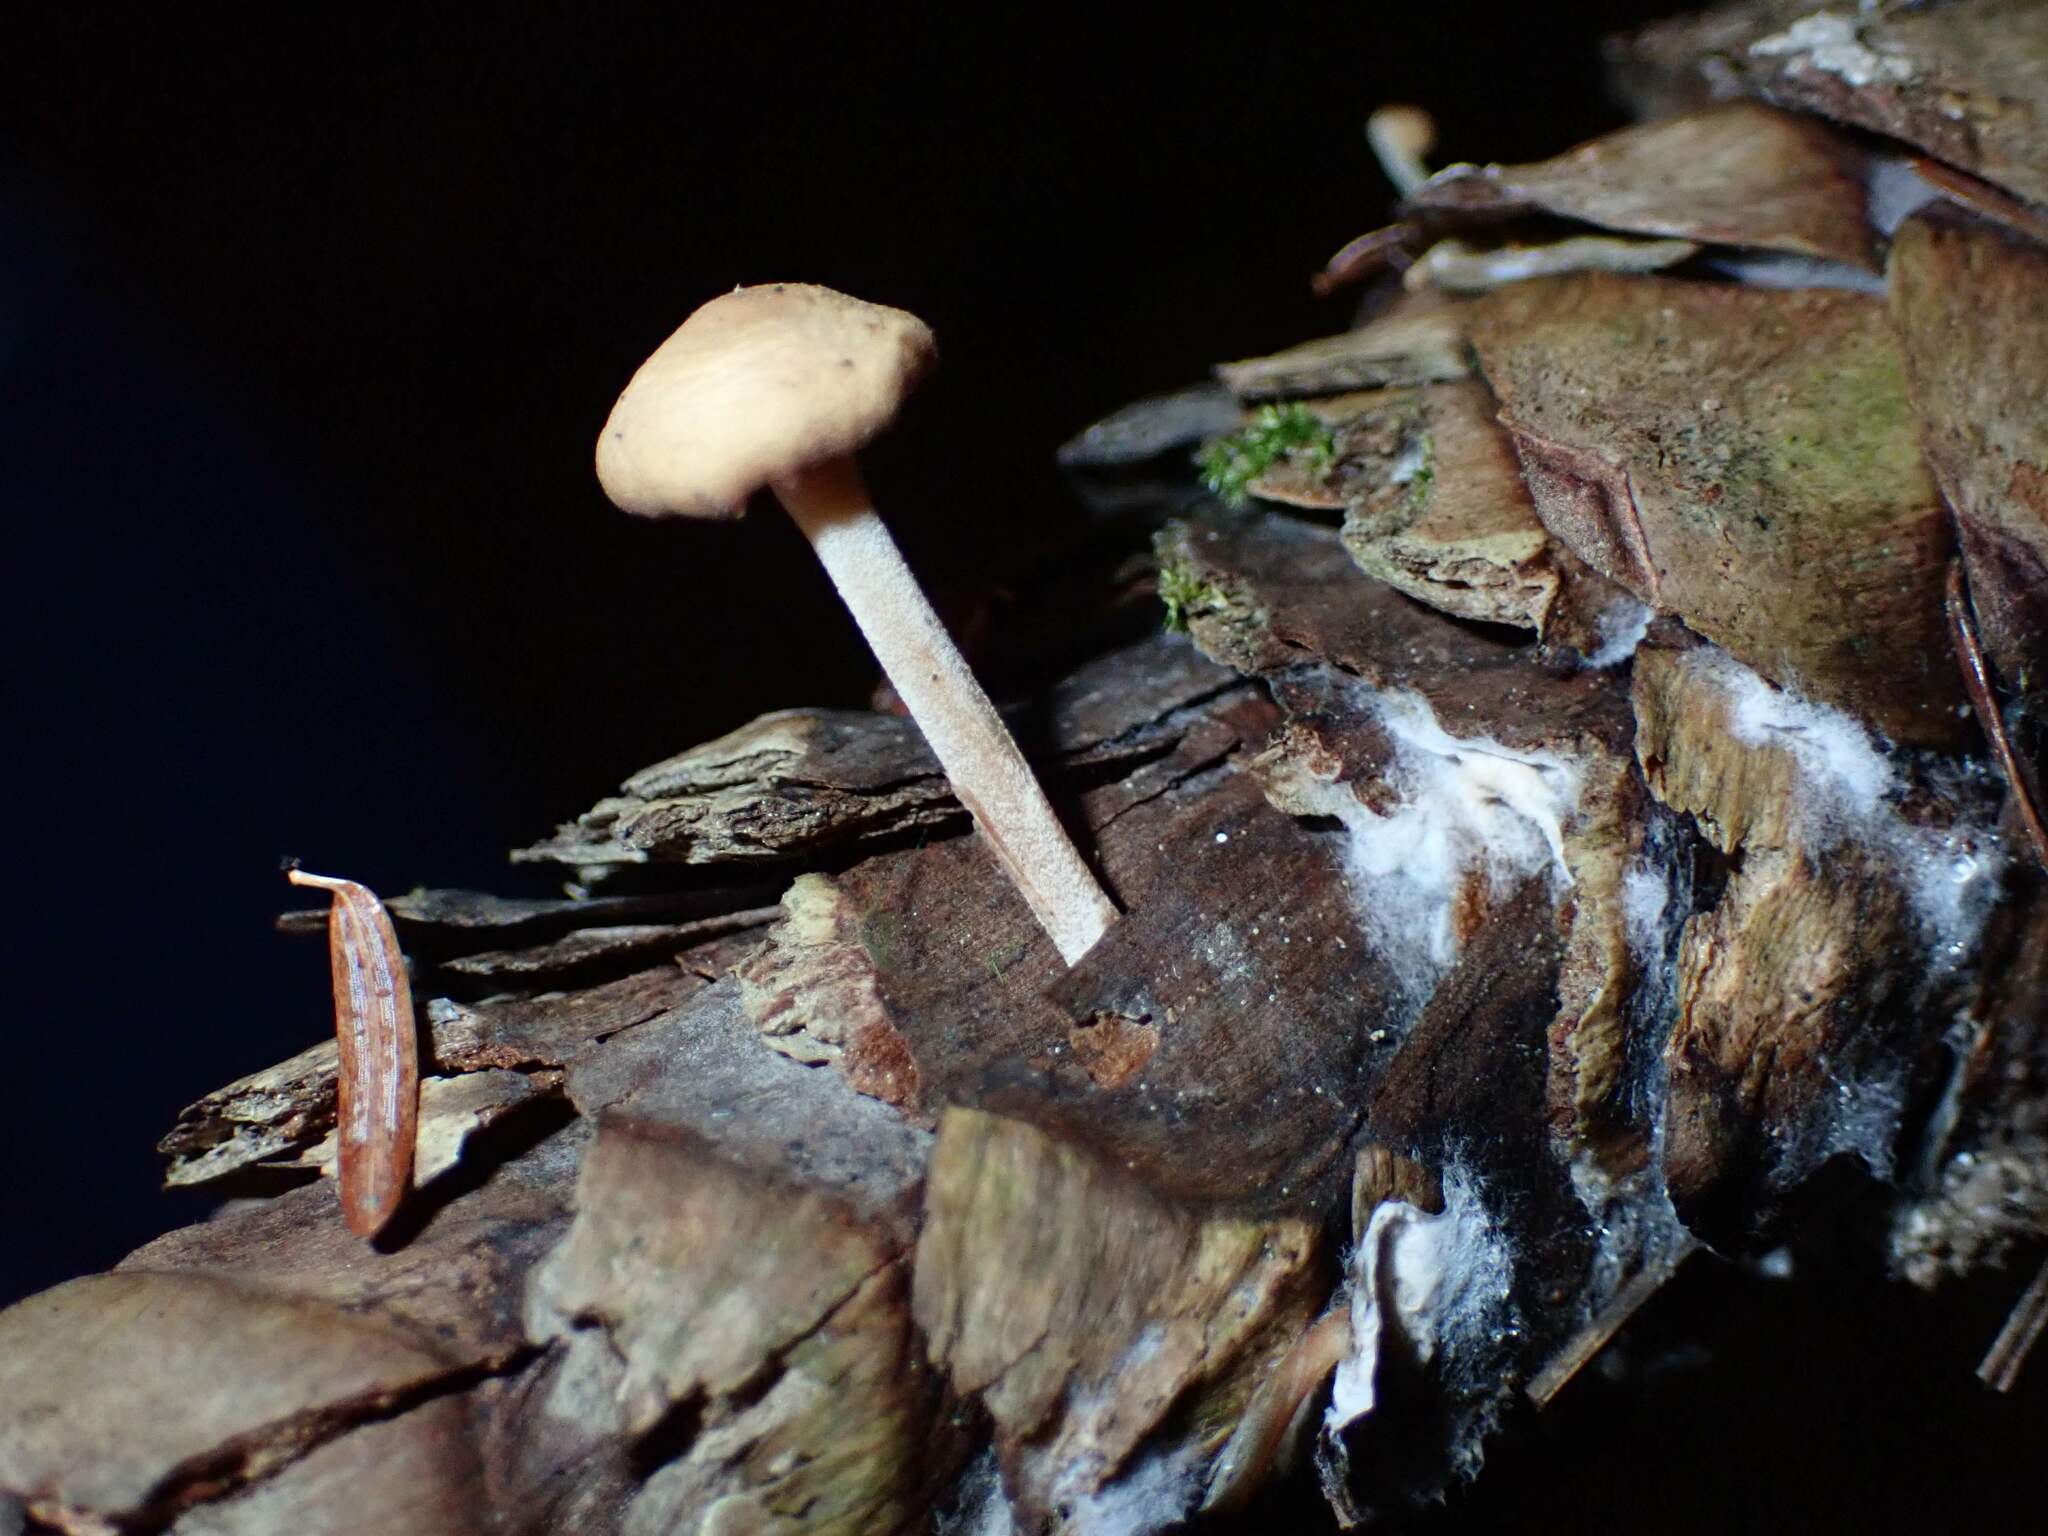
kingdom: Fungi
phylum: Basidiomycota
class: Agaricomycetes
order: Agaricales
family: Marasmiaceae
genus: Baeospora
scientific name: Baeospora myosura
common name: Conifercone cap
